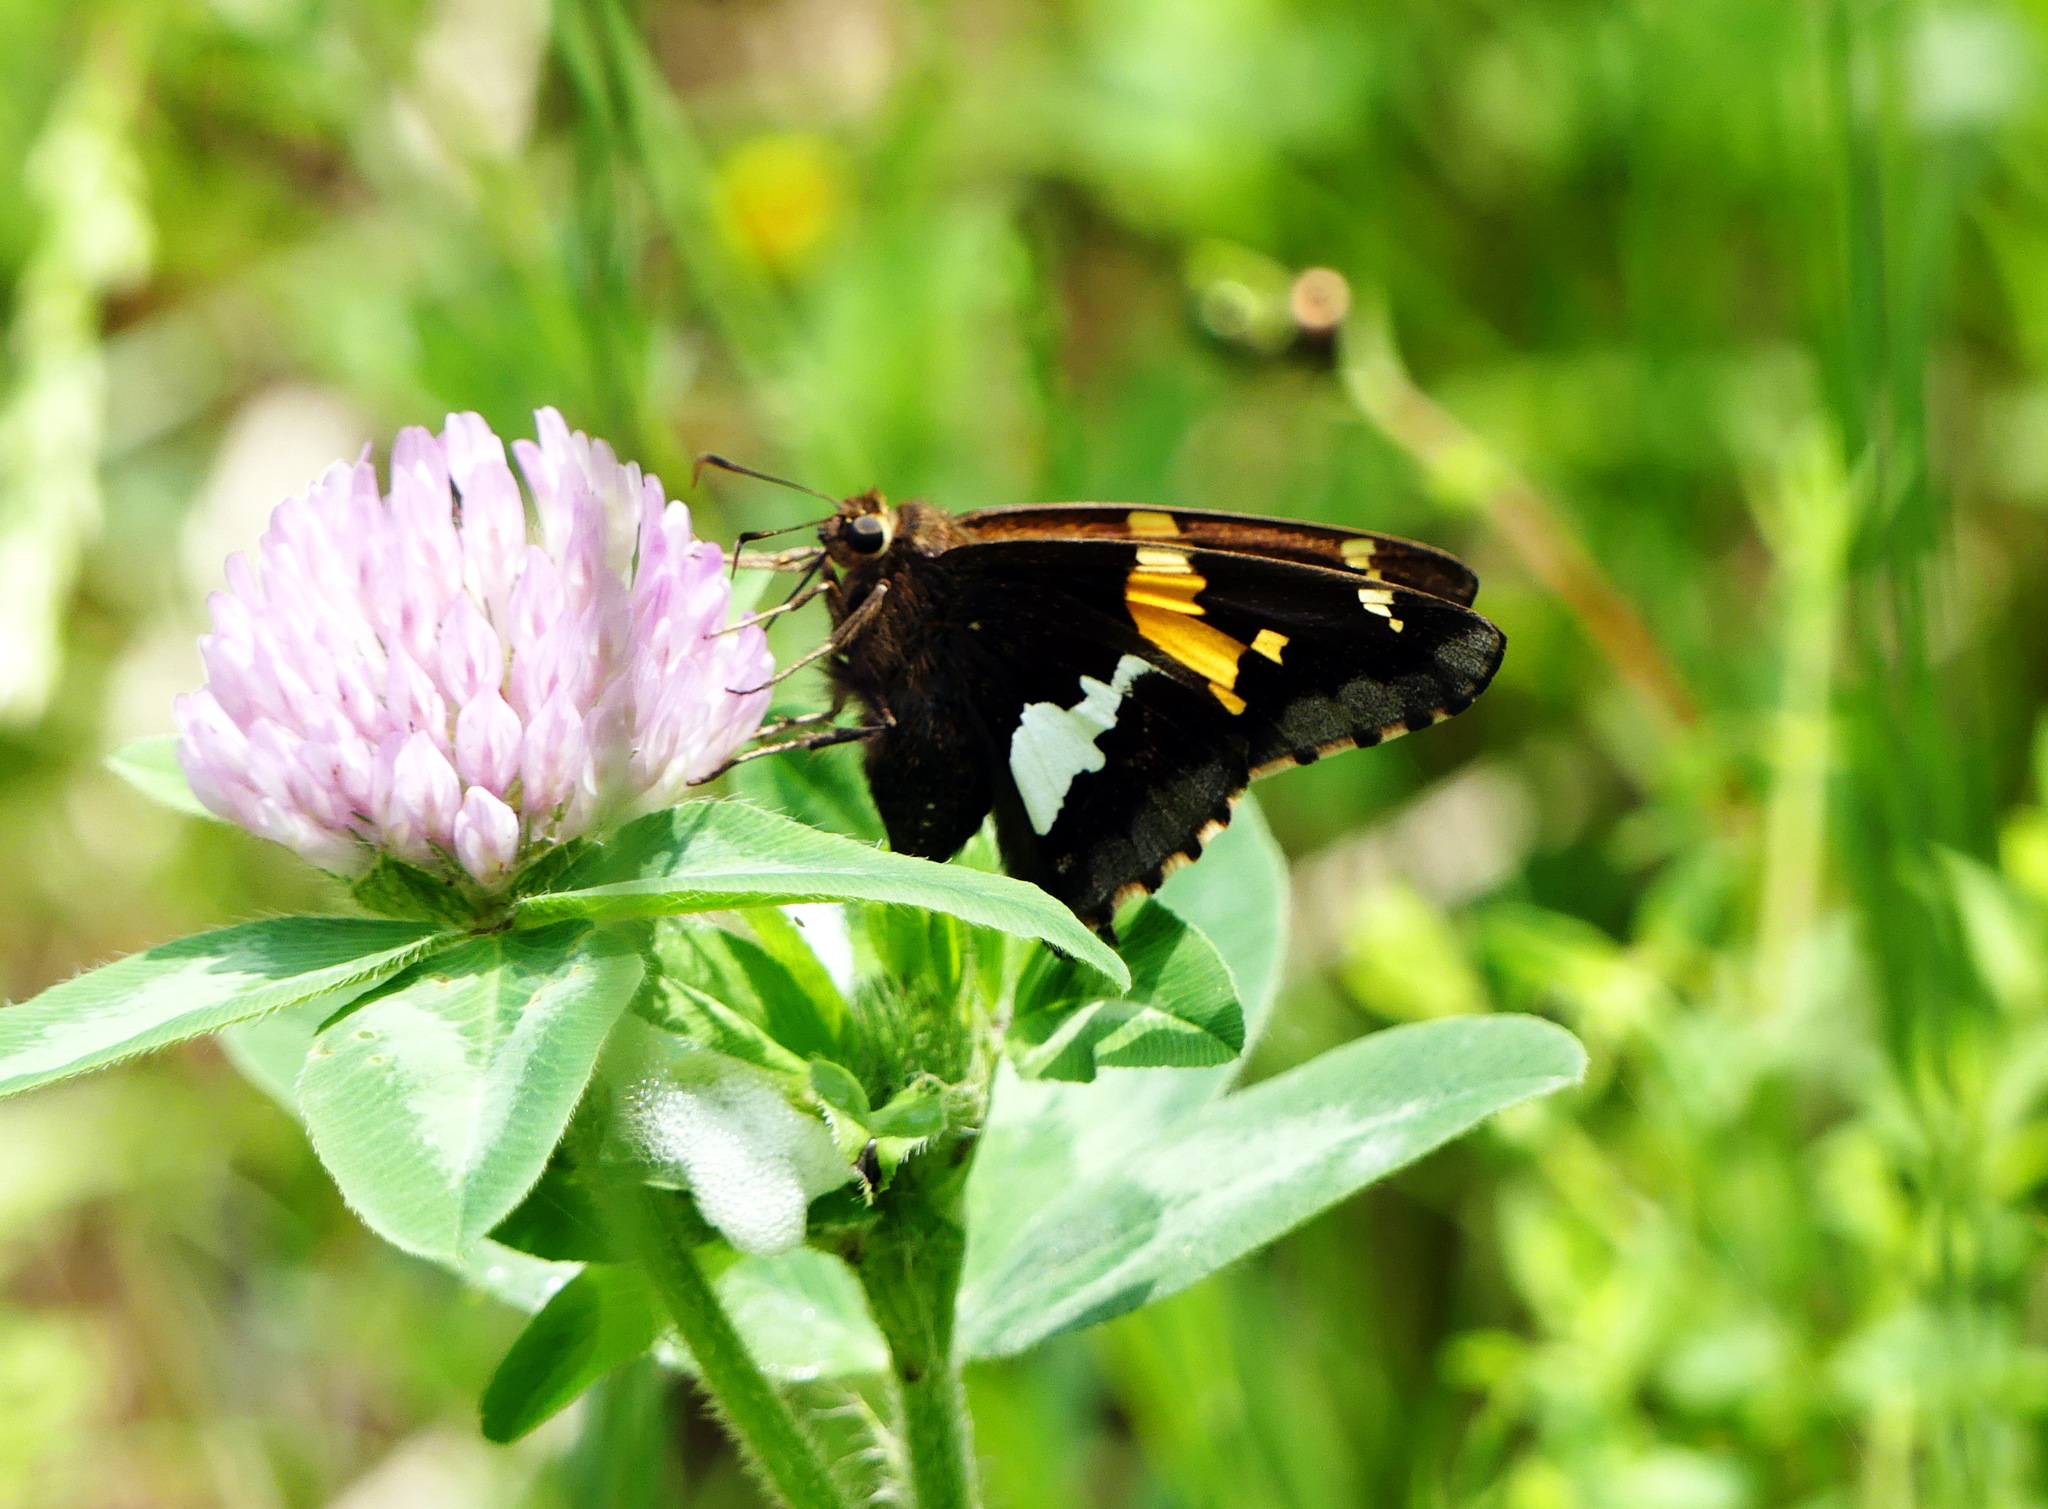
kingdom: Animalia
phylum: Arthropoda
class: Insecta
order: Lepidoptera
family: Hesperiidae
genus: Epargyreus
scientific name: Epargyreus clarus
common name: Silver-spotted skipper
